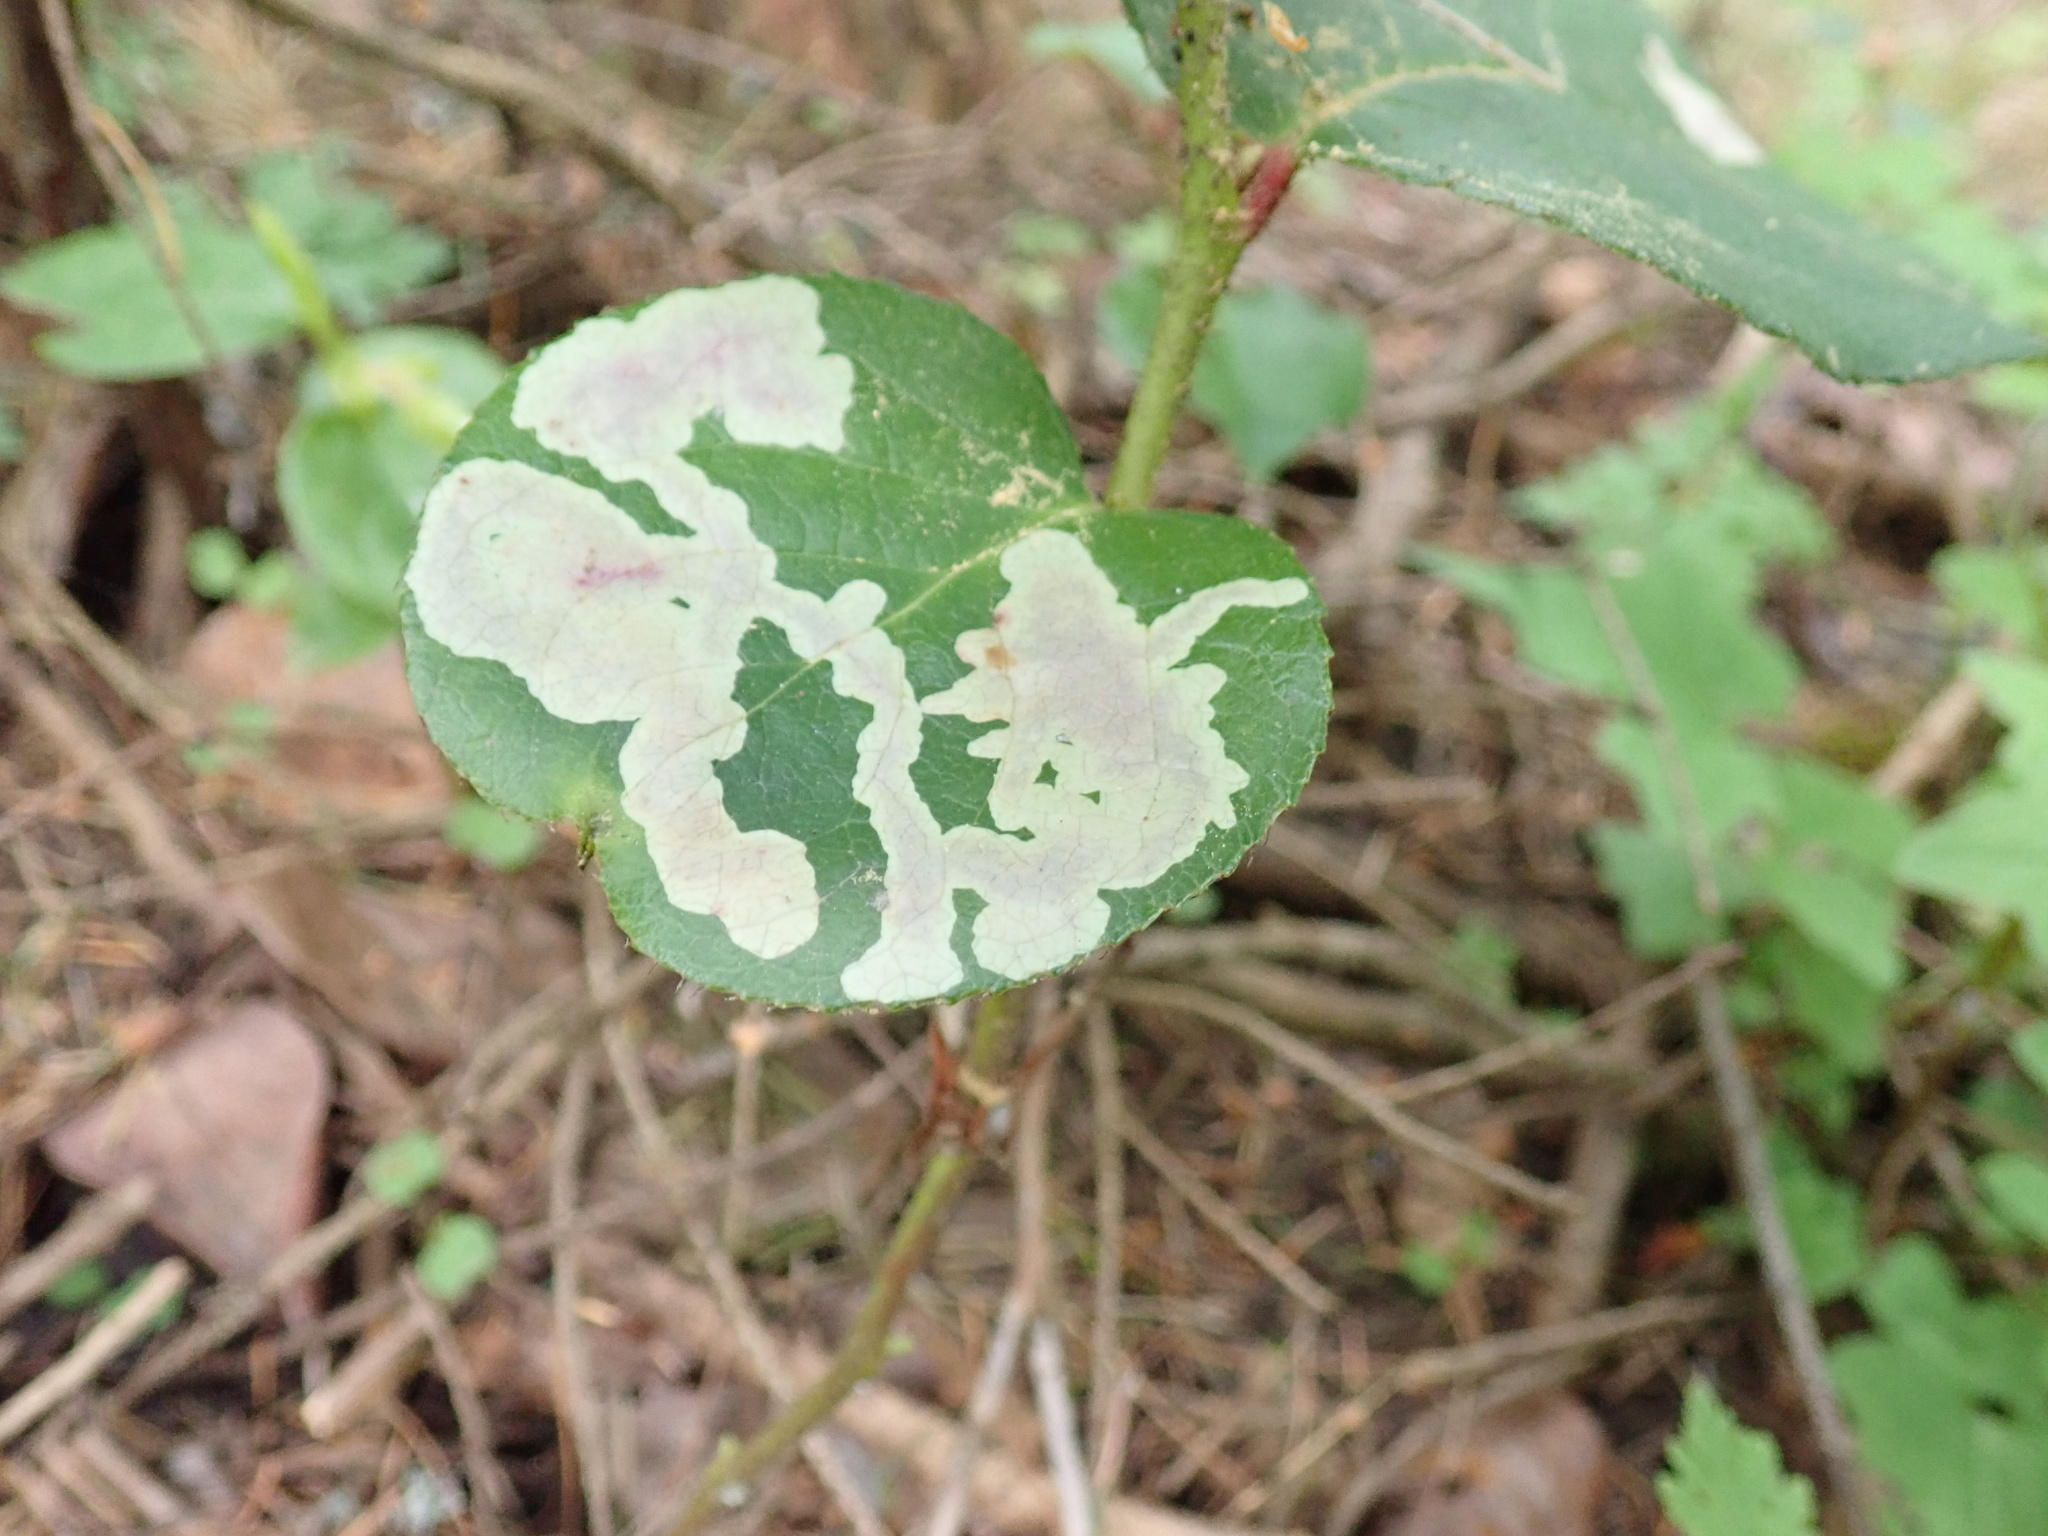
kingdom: Animalia
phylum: Arthropoda
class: Insecta
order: Lepidoptera
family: Gracillariidae
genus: Cameraria
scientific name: Cameraria gaultheriella
